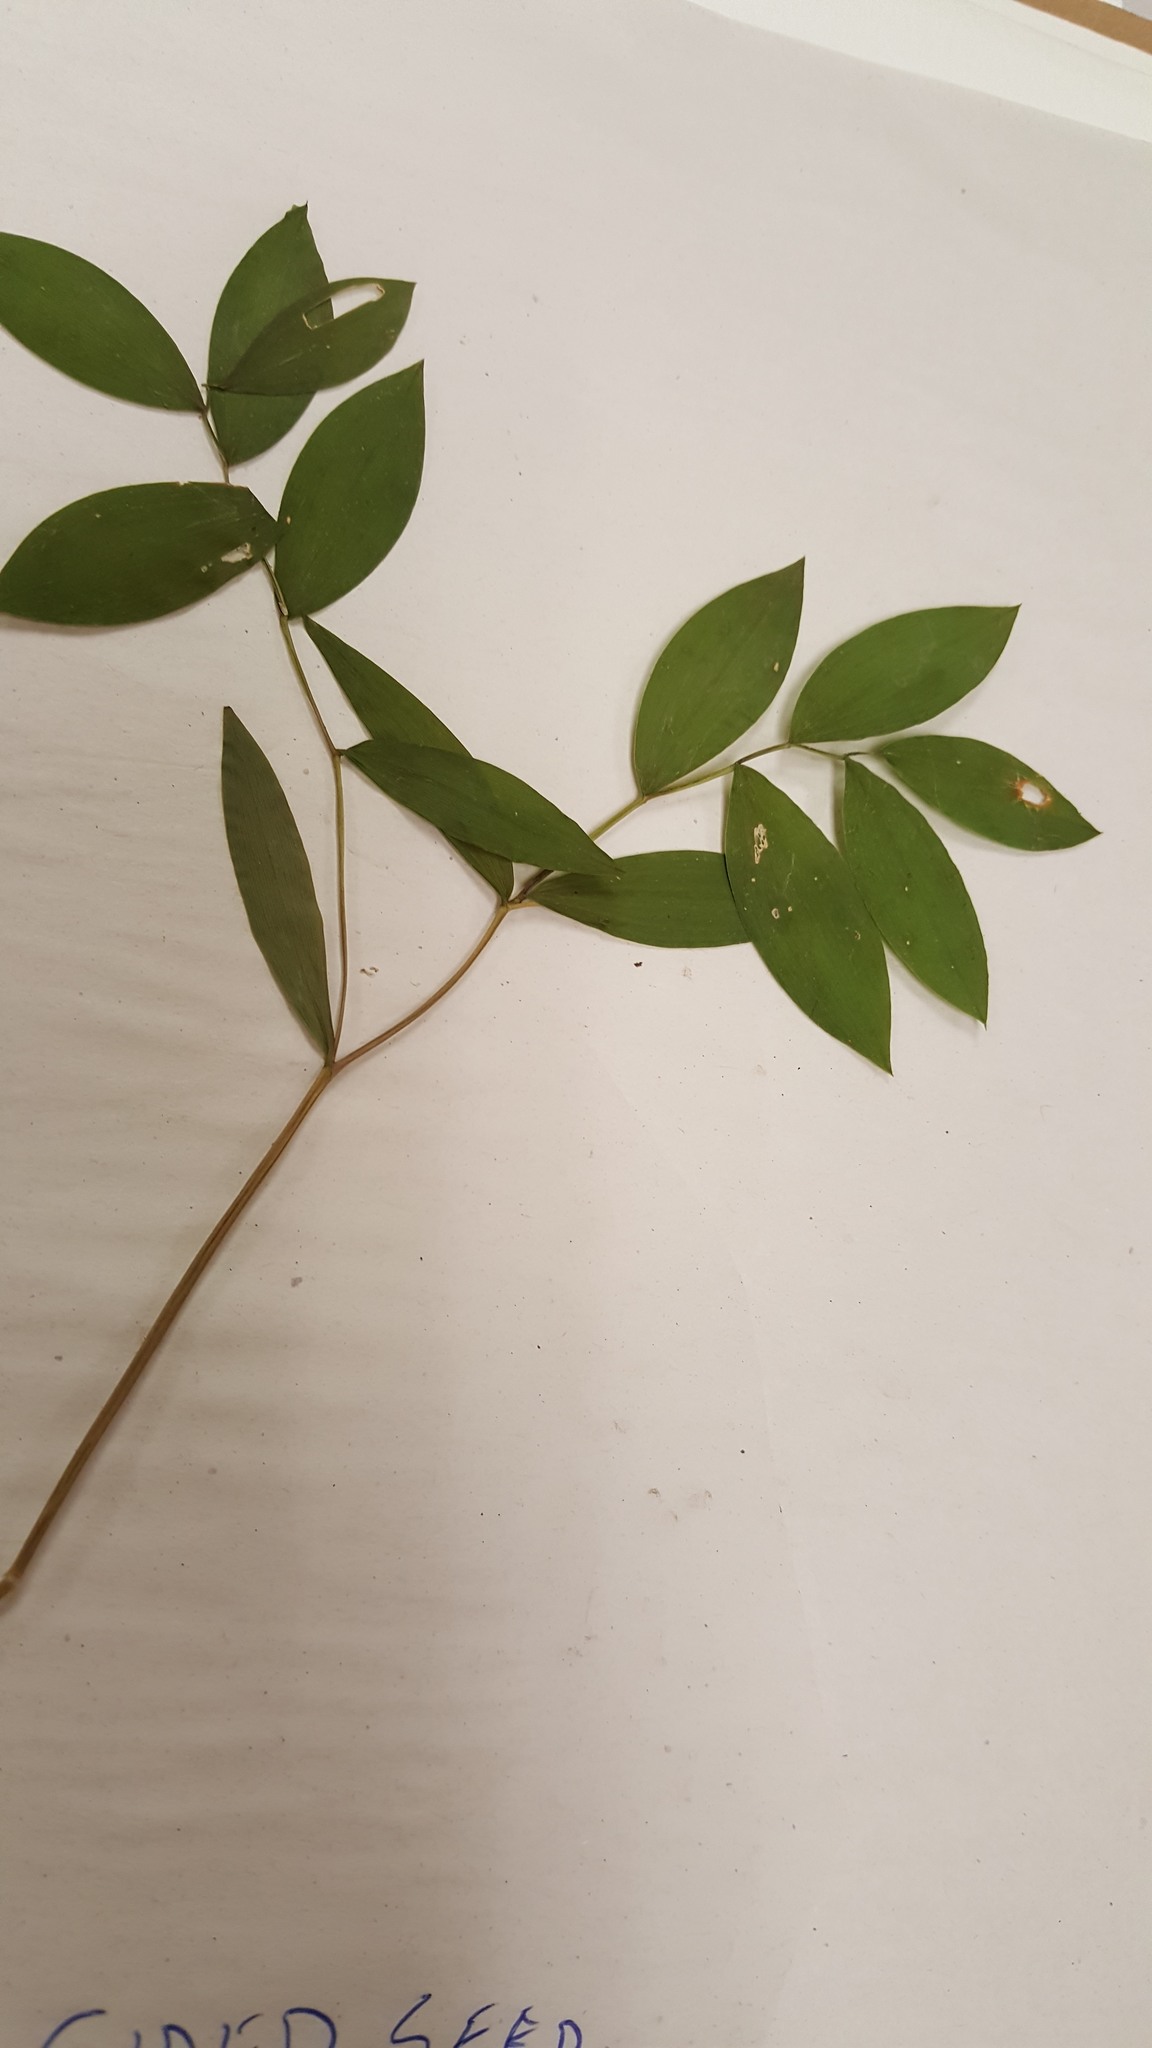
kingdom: Plantae
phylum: Tracheophyta
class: Liliopsida
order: Liliales
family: Colchicaceae
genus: Uvularia
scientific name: Uvularia sessilifolia
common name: Straw-lily
